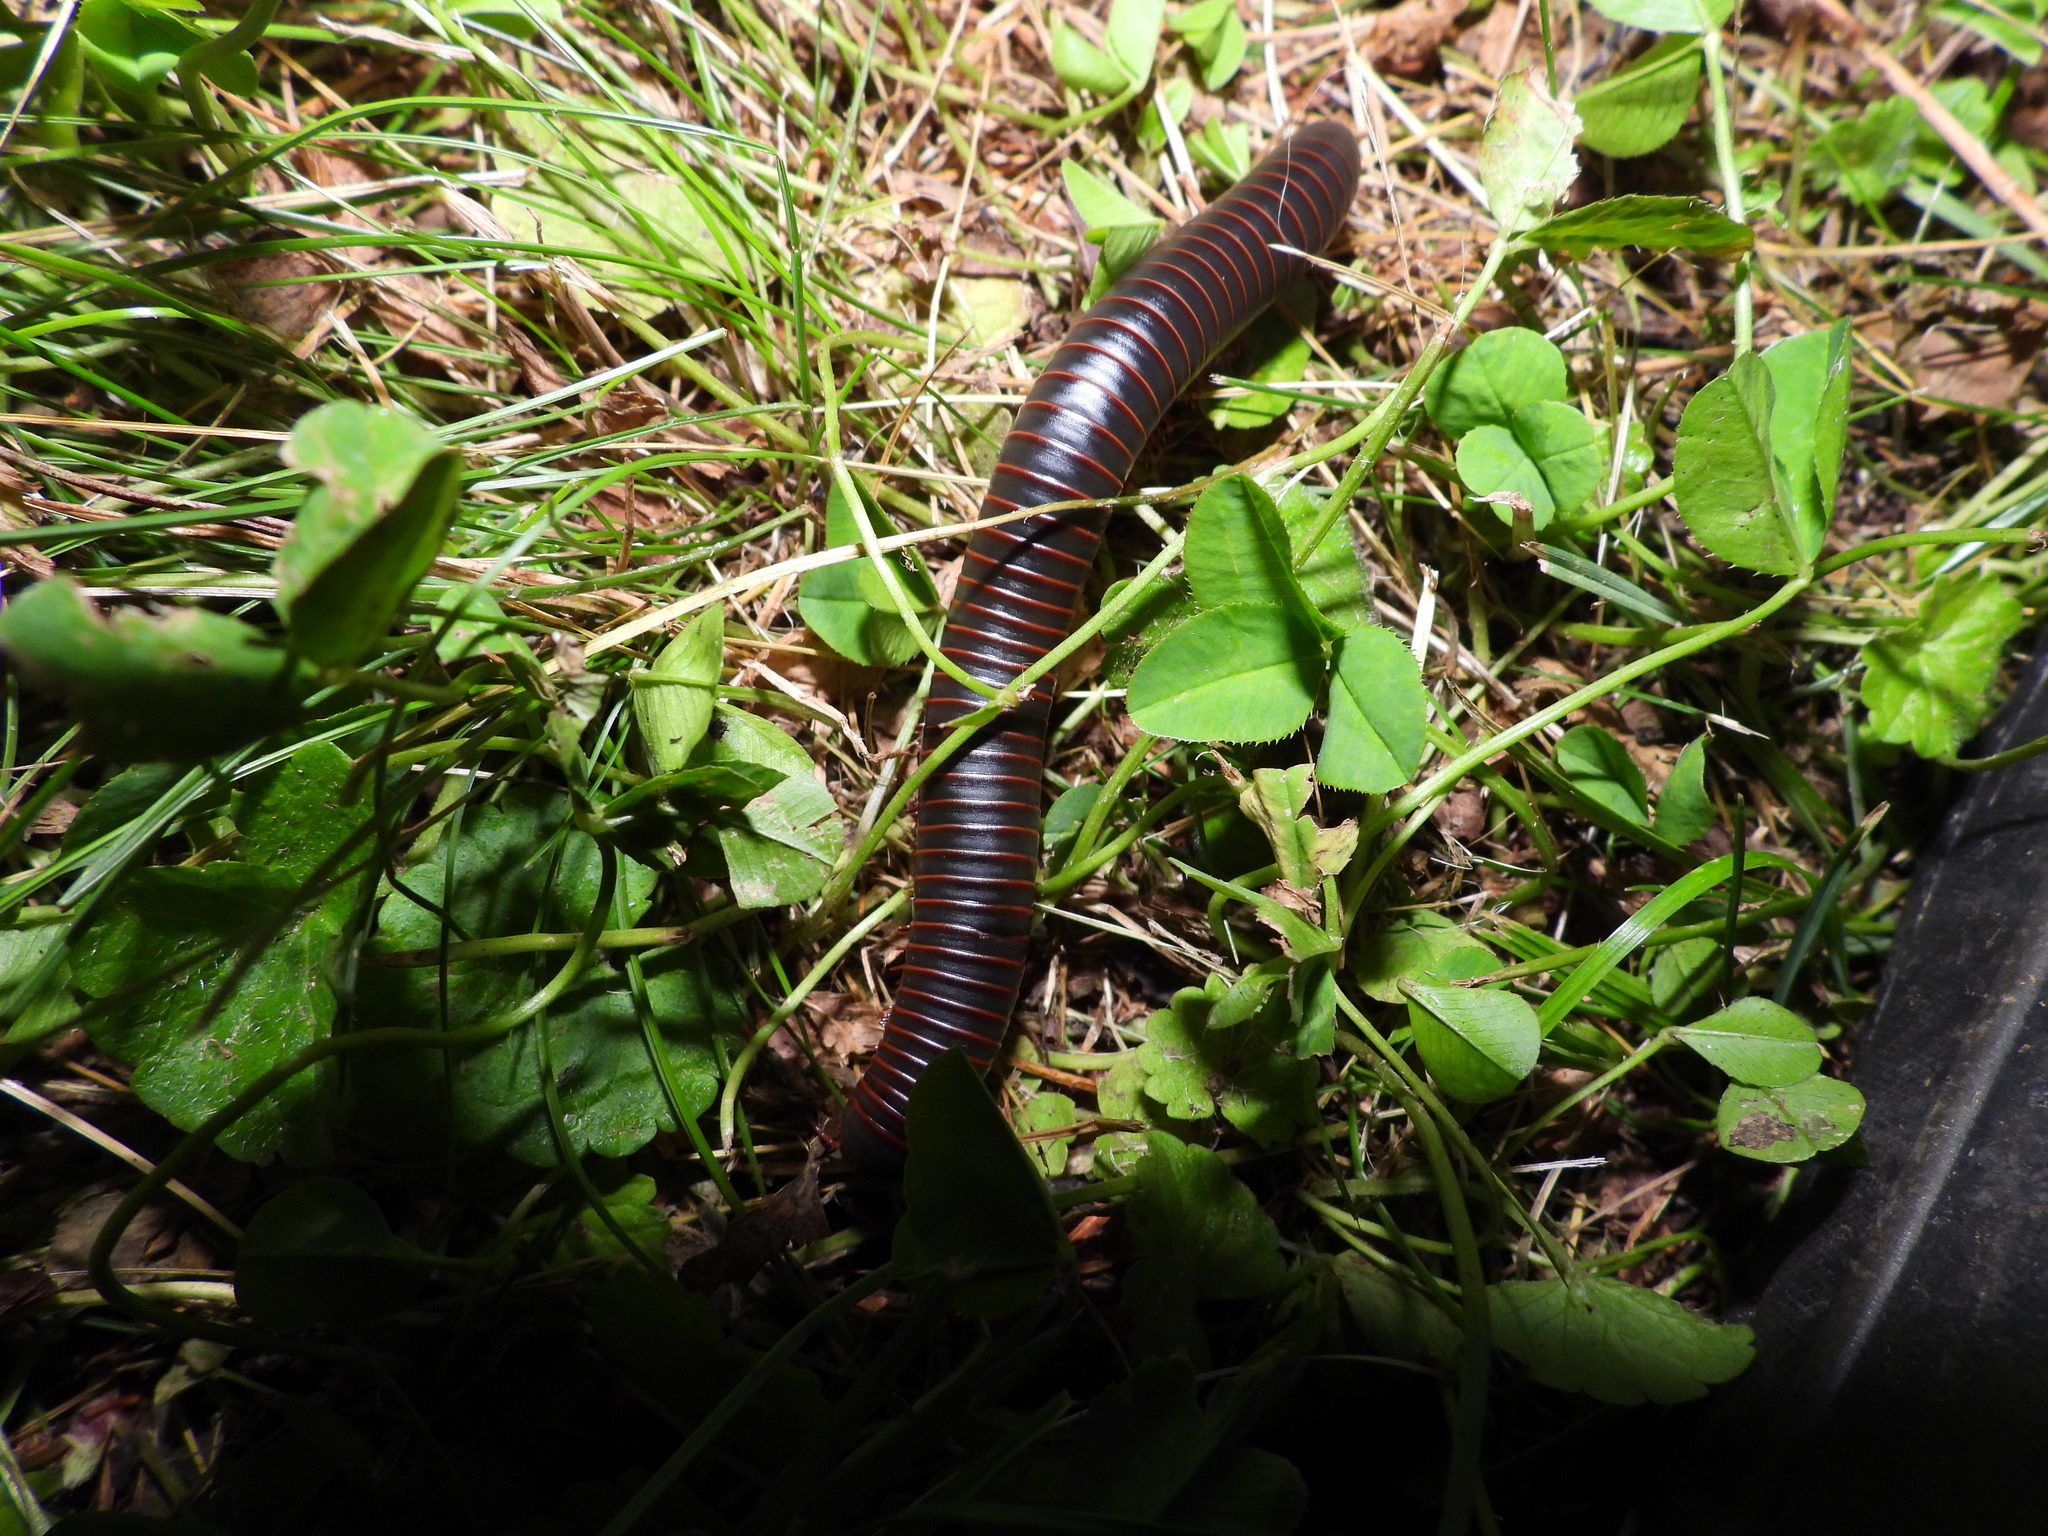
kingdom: Animalia
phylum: Arthropoda
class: Diplopoda
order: Spirobolida
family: Spirobolidae
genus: Narceus
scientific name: Narceus
